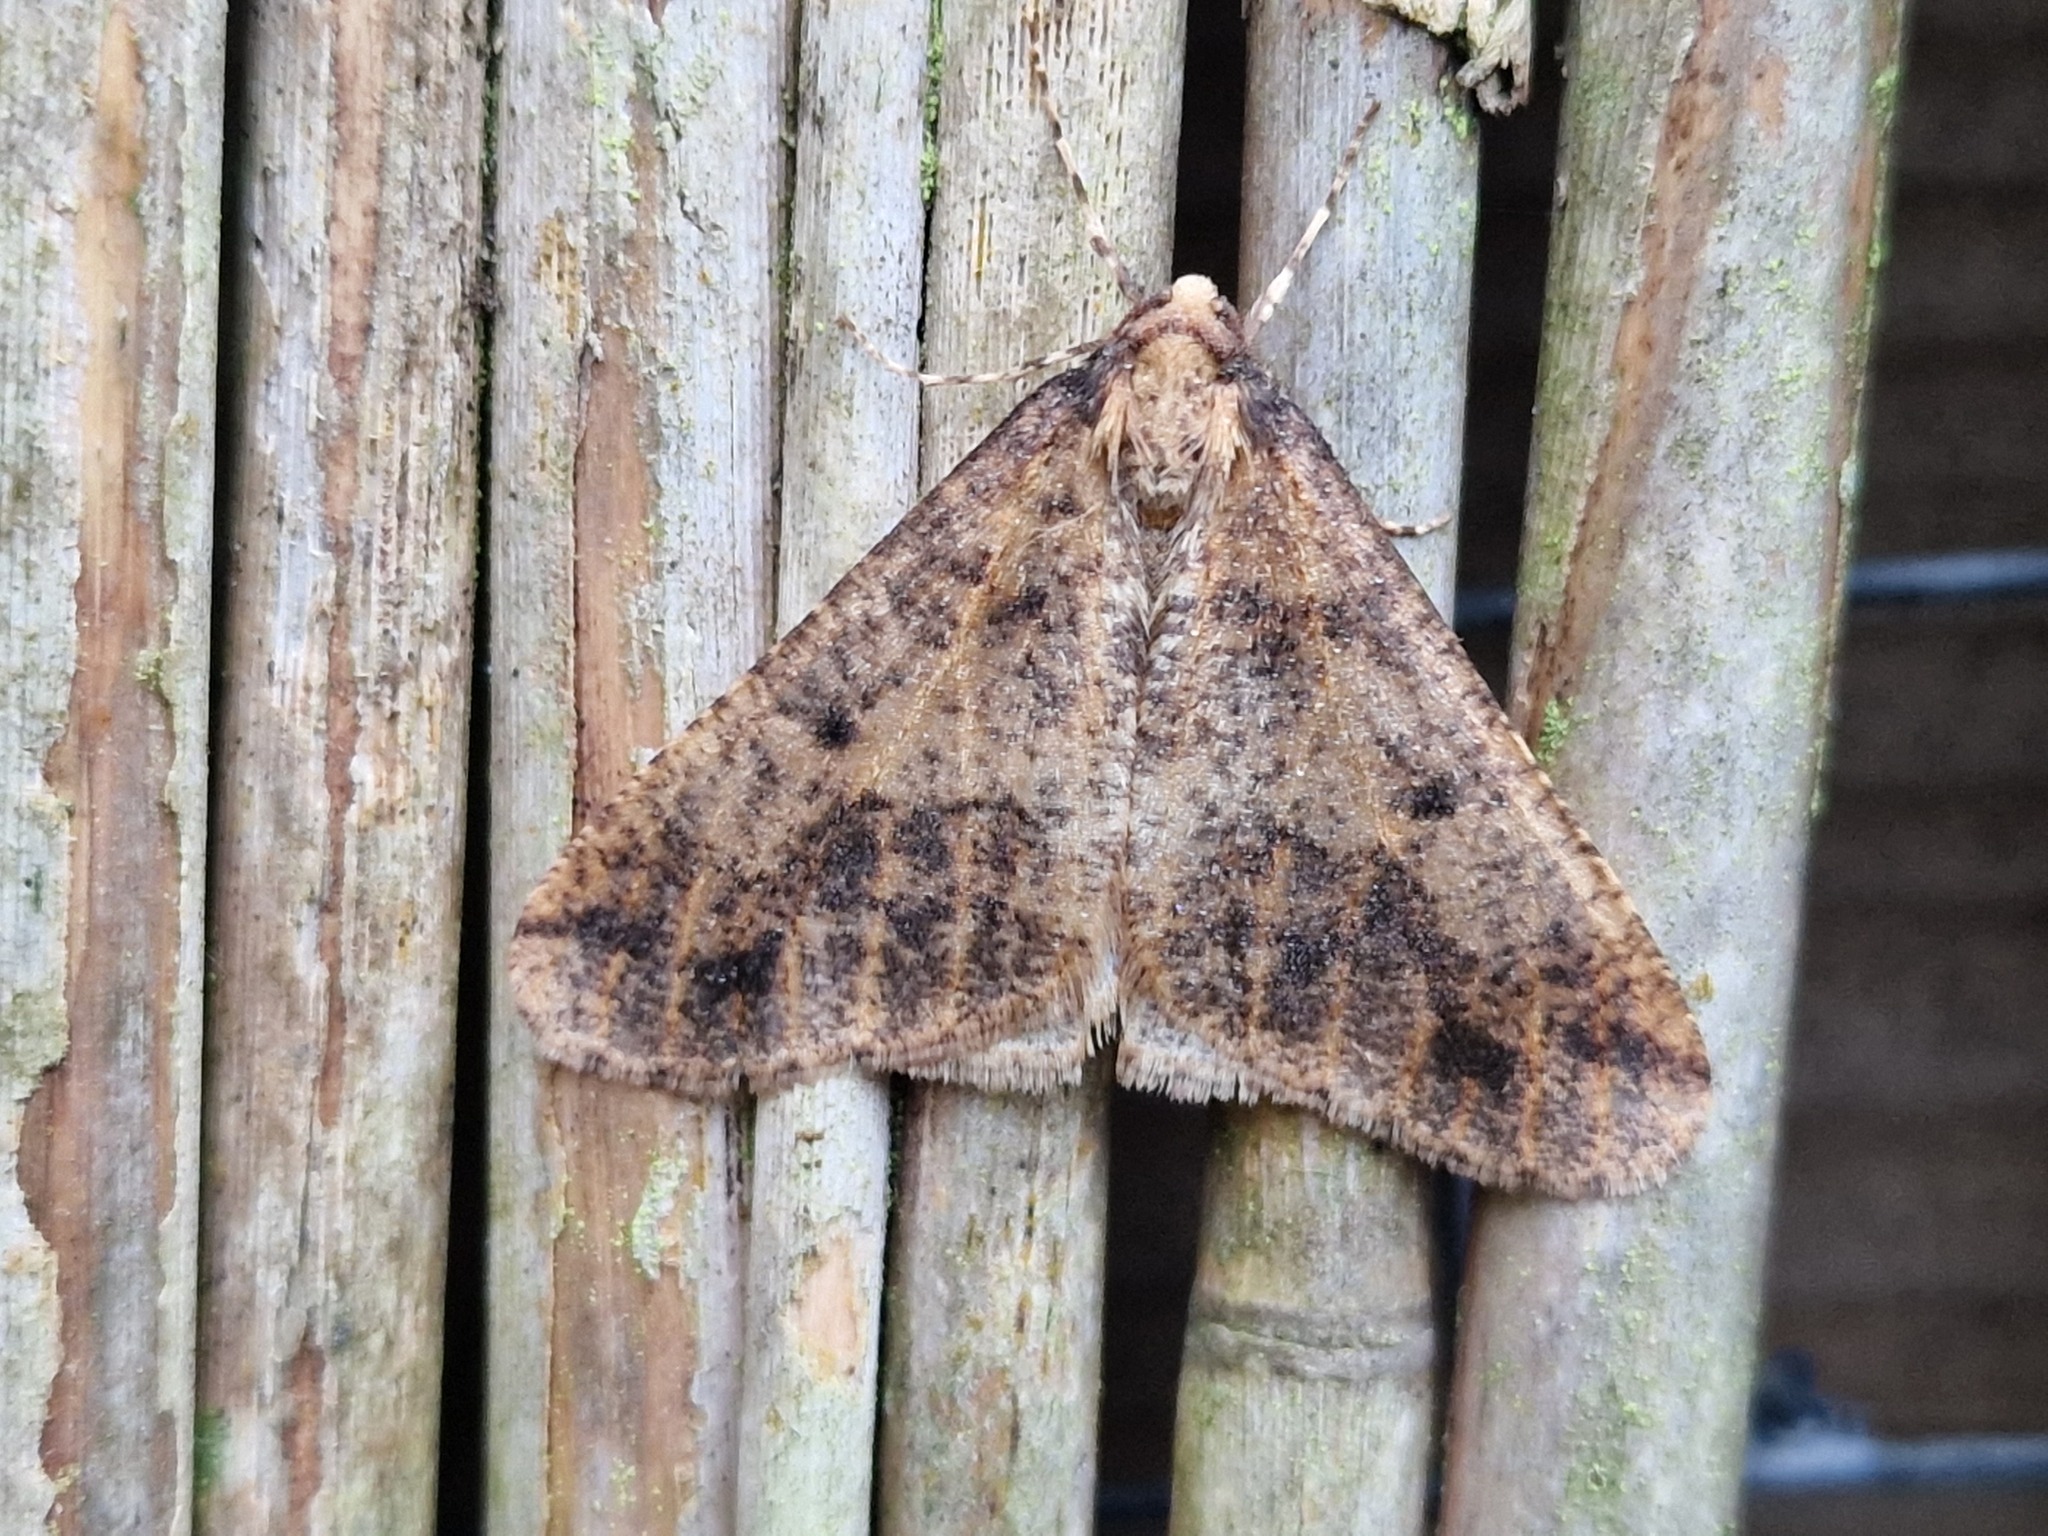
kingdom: Animalia
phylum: Arthropoda
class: Insecta
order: Lepidoptera
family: Geometridae
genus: Erannis
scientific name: Erannis defoliaria
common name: Mottled umber
